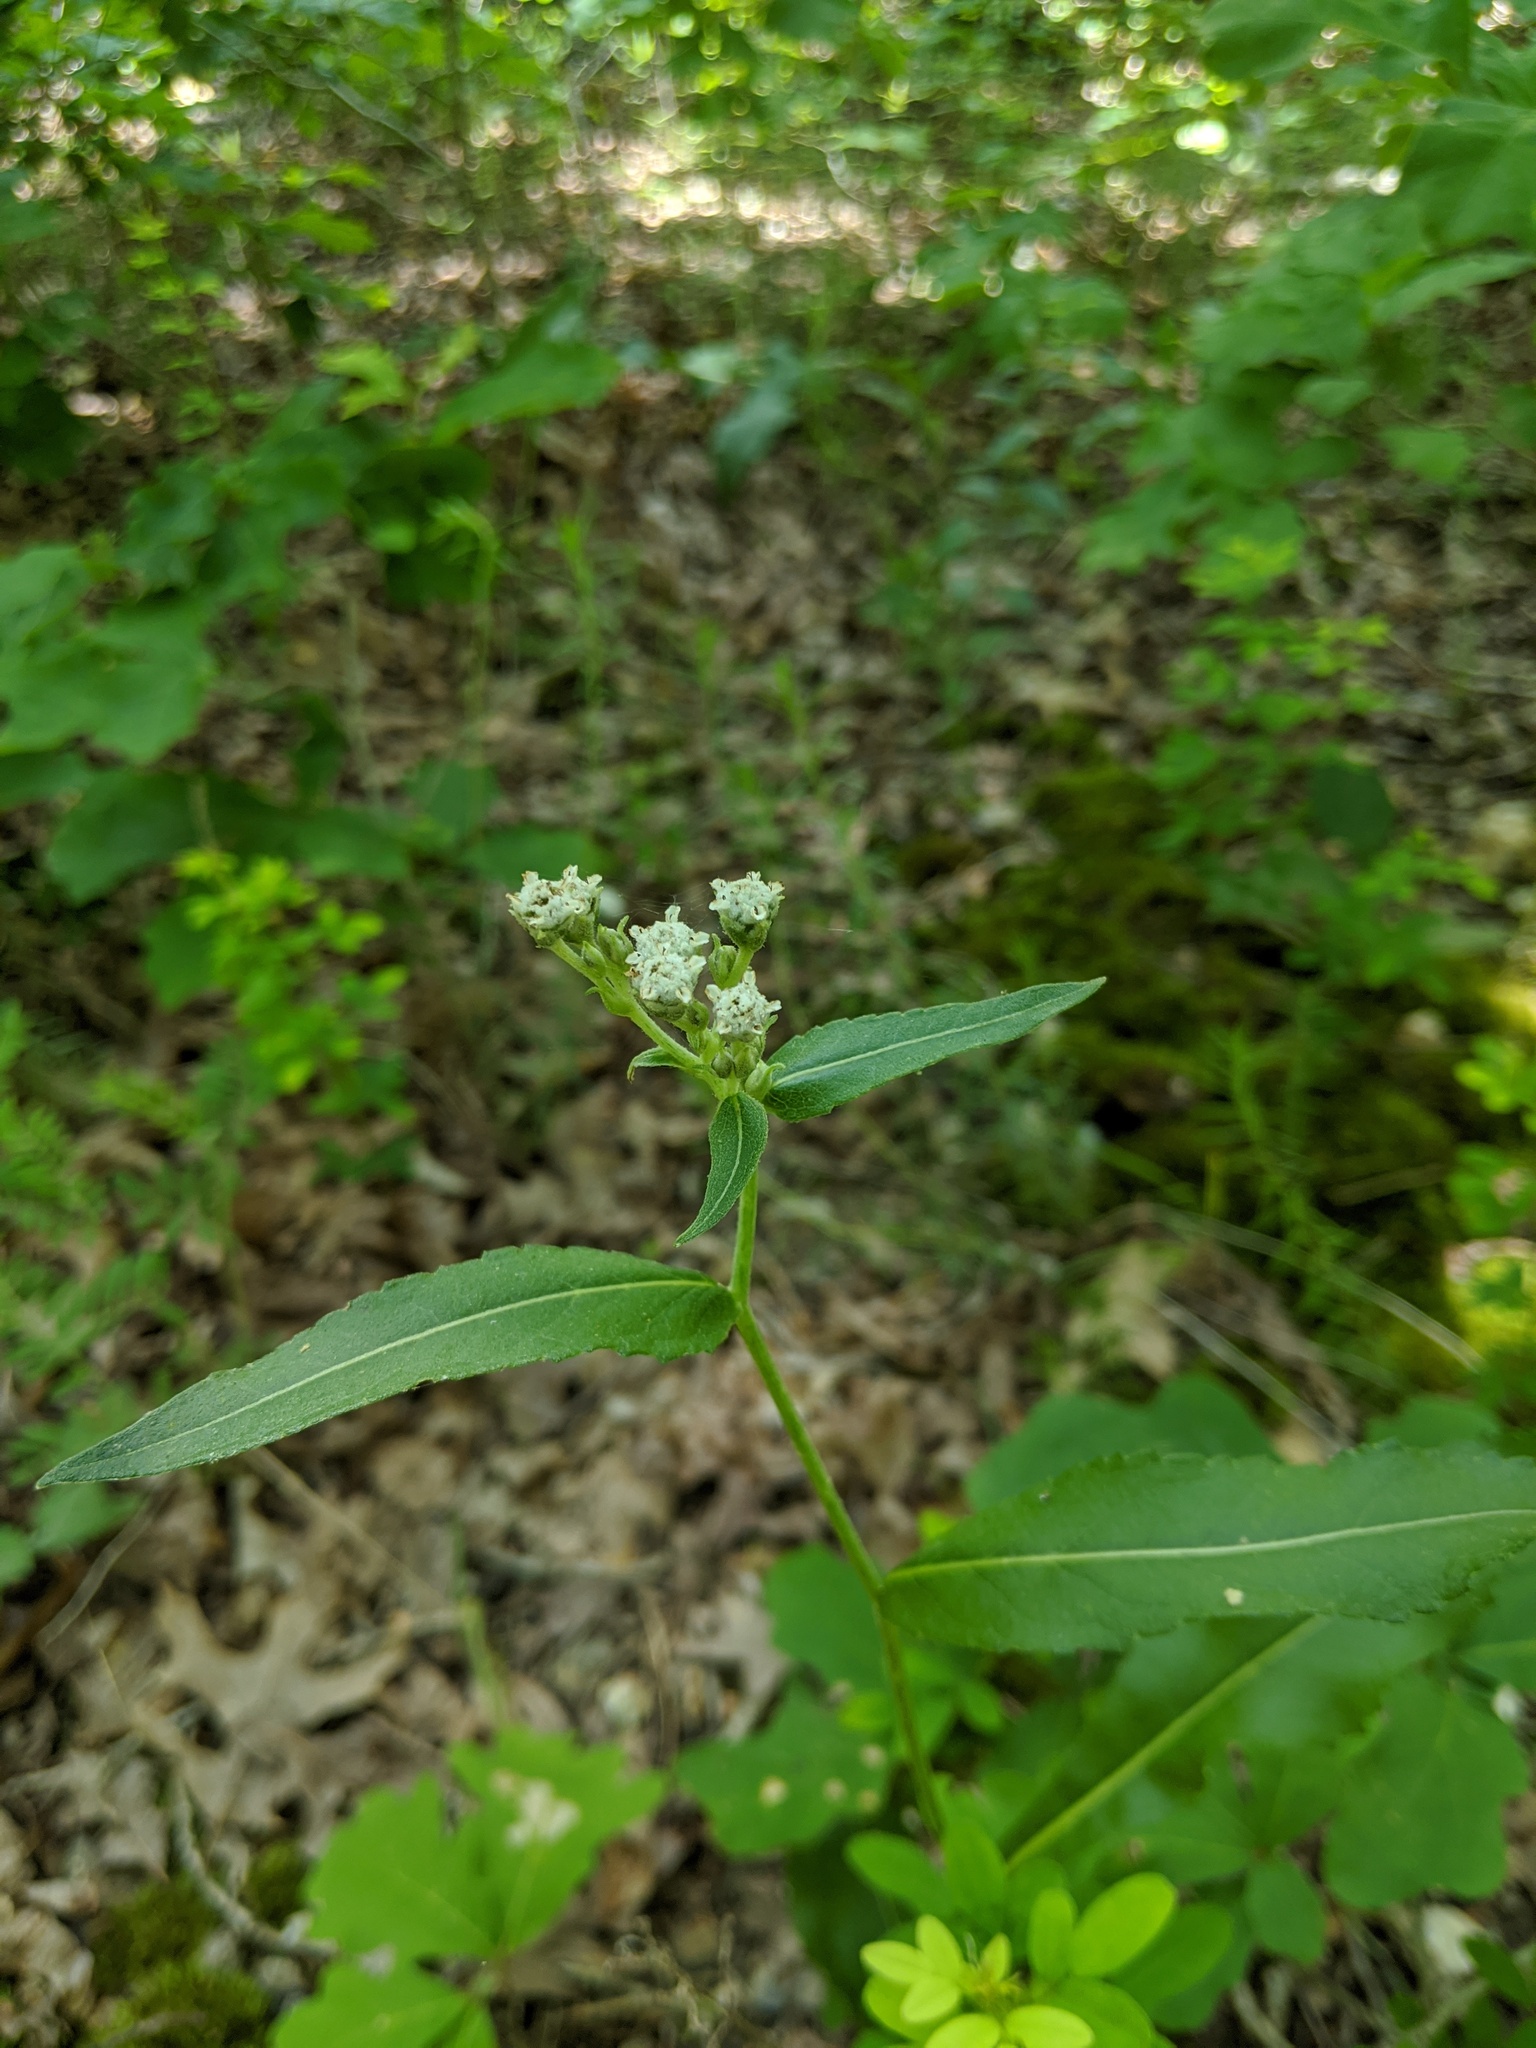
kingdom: Plantae
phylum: Tracheophyta
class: Magnoliopsida
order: Asterales
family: Asteraceae
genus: Parthenium
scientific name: Parthenium integrifolium
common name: American feverfew
